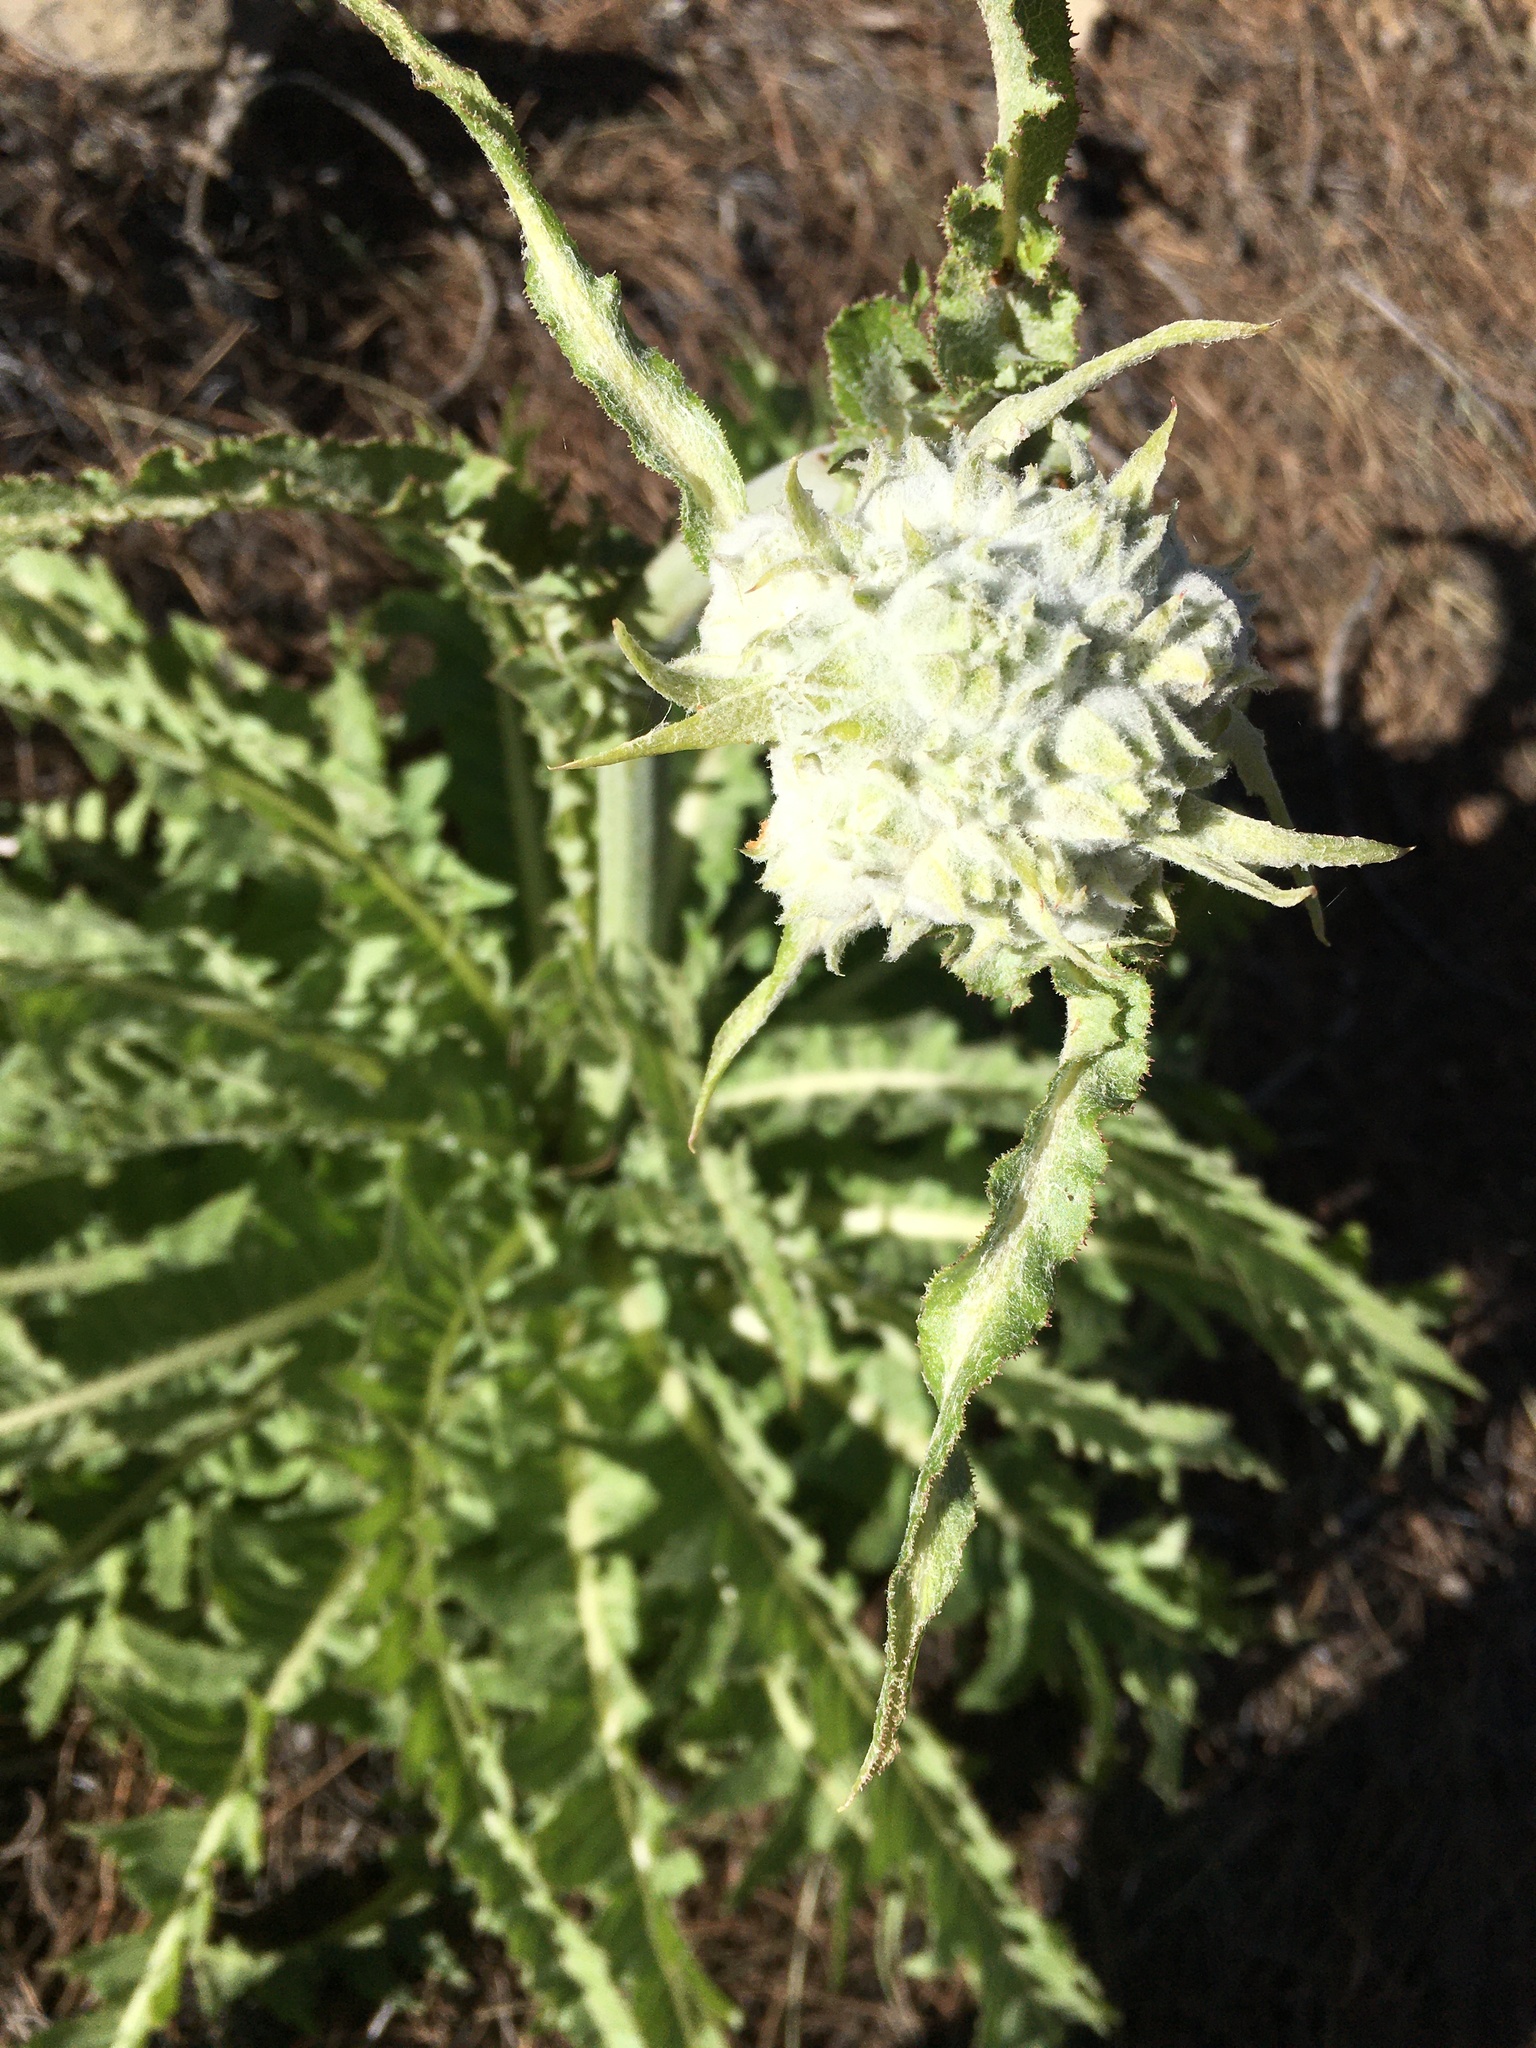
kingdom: Plantae
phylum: Tracheophyta
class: Magnoliopsida
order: Asterales
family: Asteraceae
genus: Sonchus
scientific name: Sonchus acaulis
